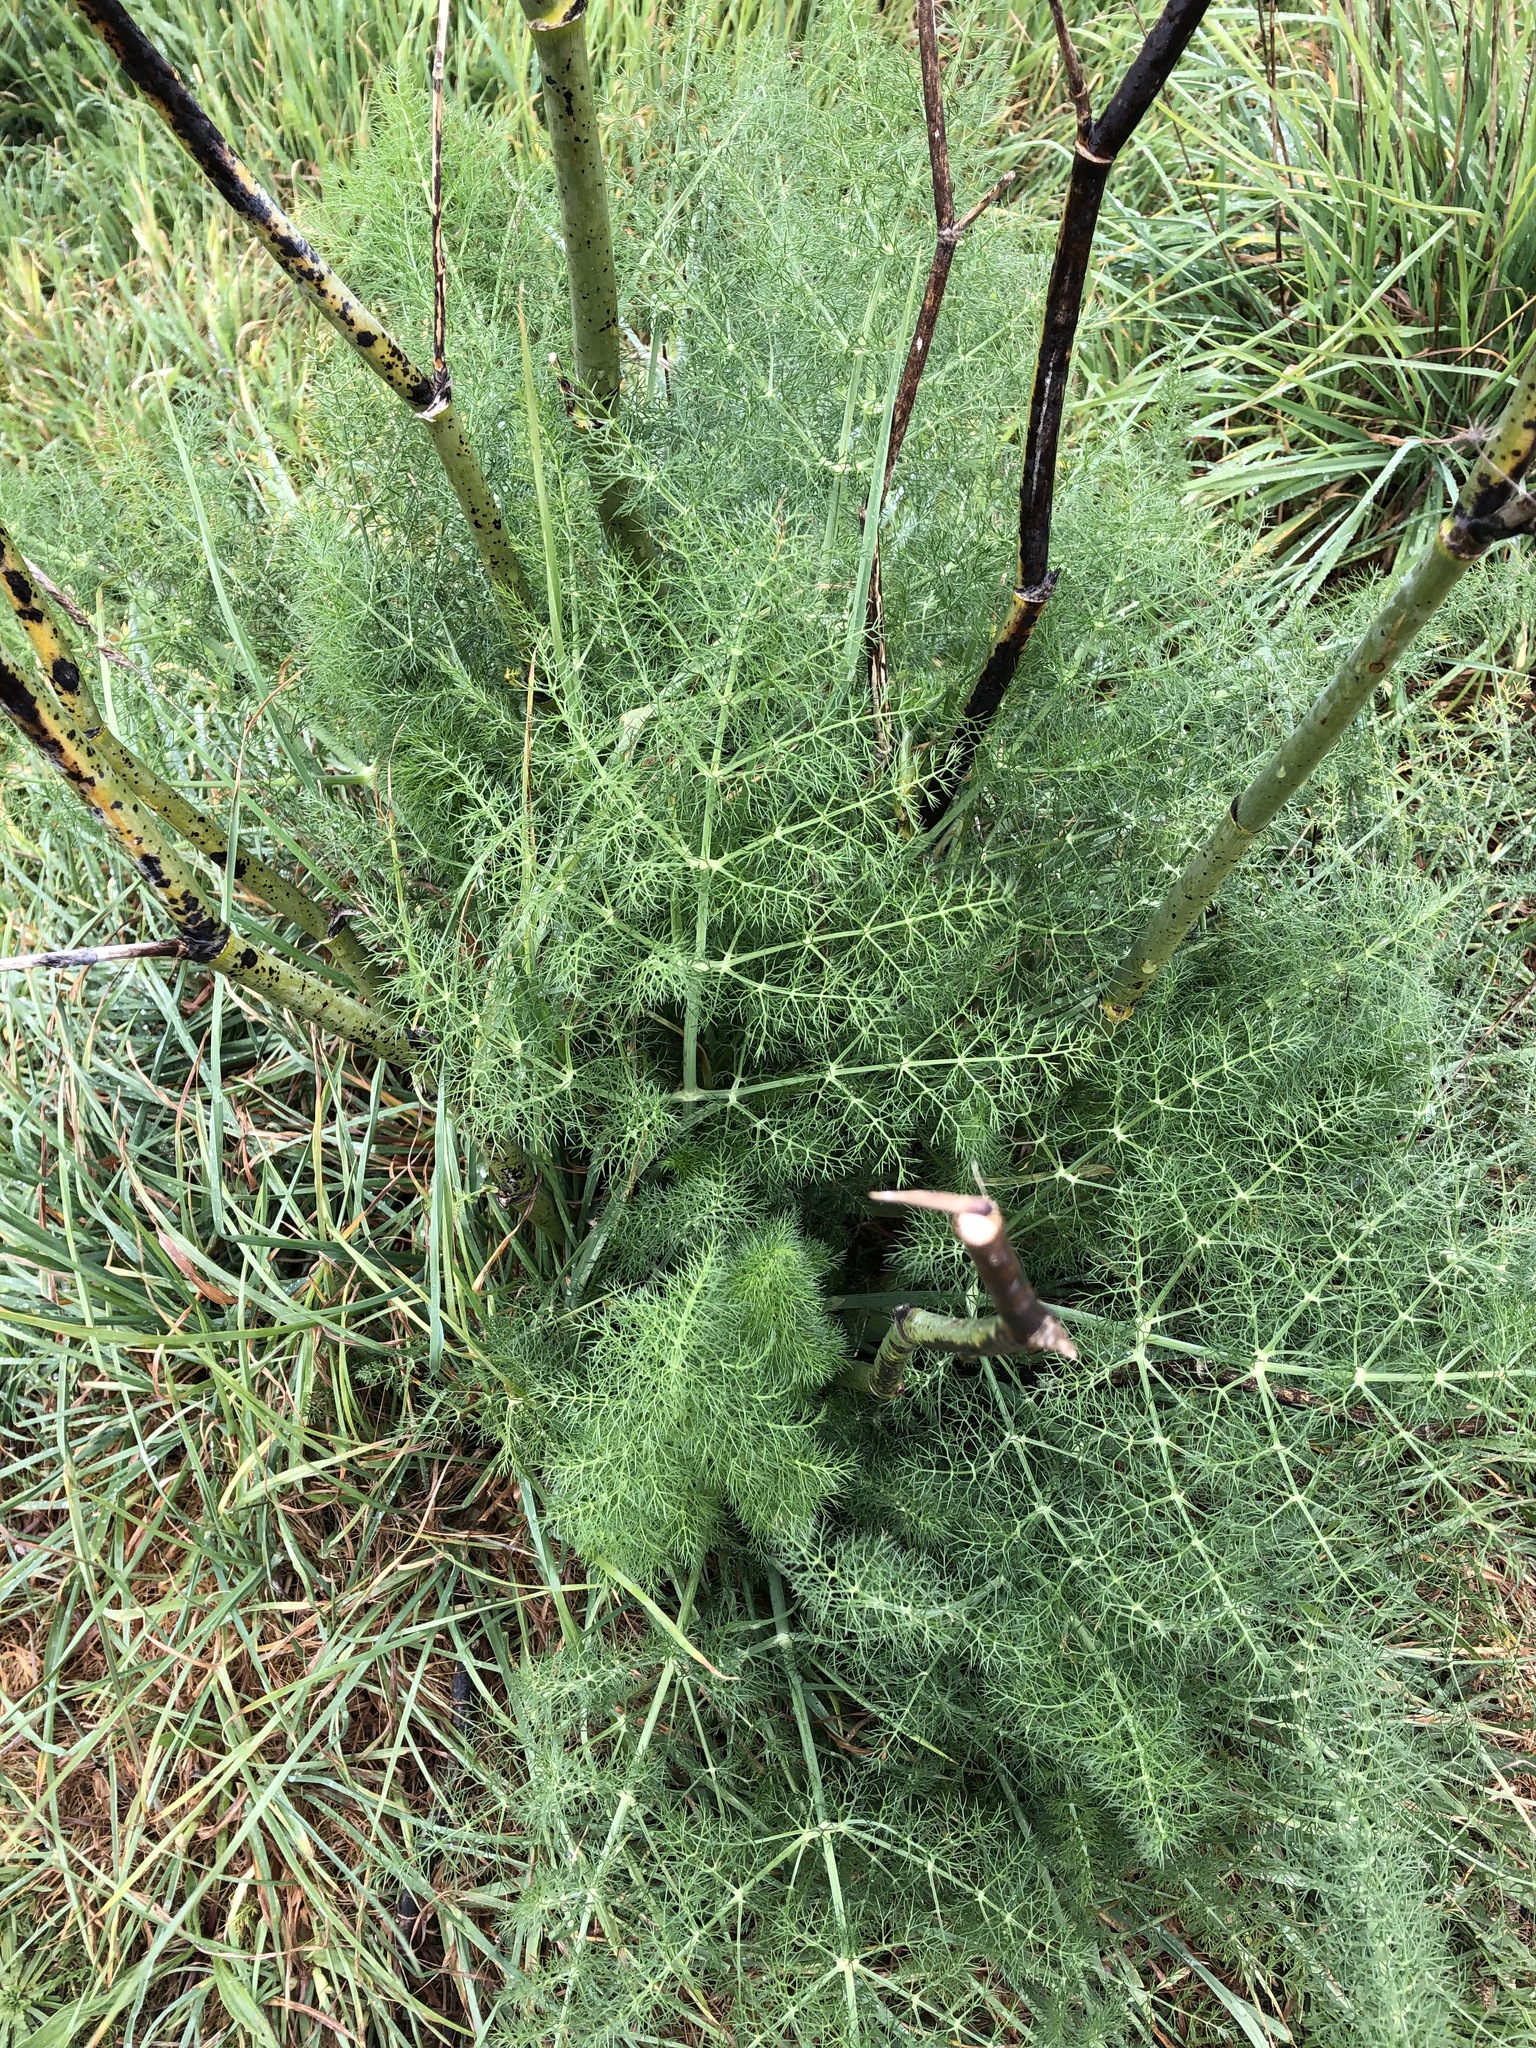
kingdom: Plantae
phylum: Tracheophyta
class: Magnoliopsida
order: Apiales
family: Apiaceae
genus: Foeniculum
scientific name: Foeniculum vulgare
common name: Fennel
